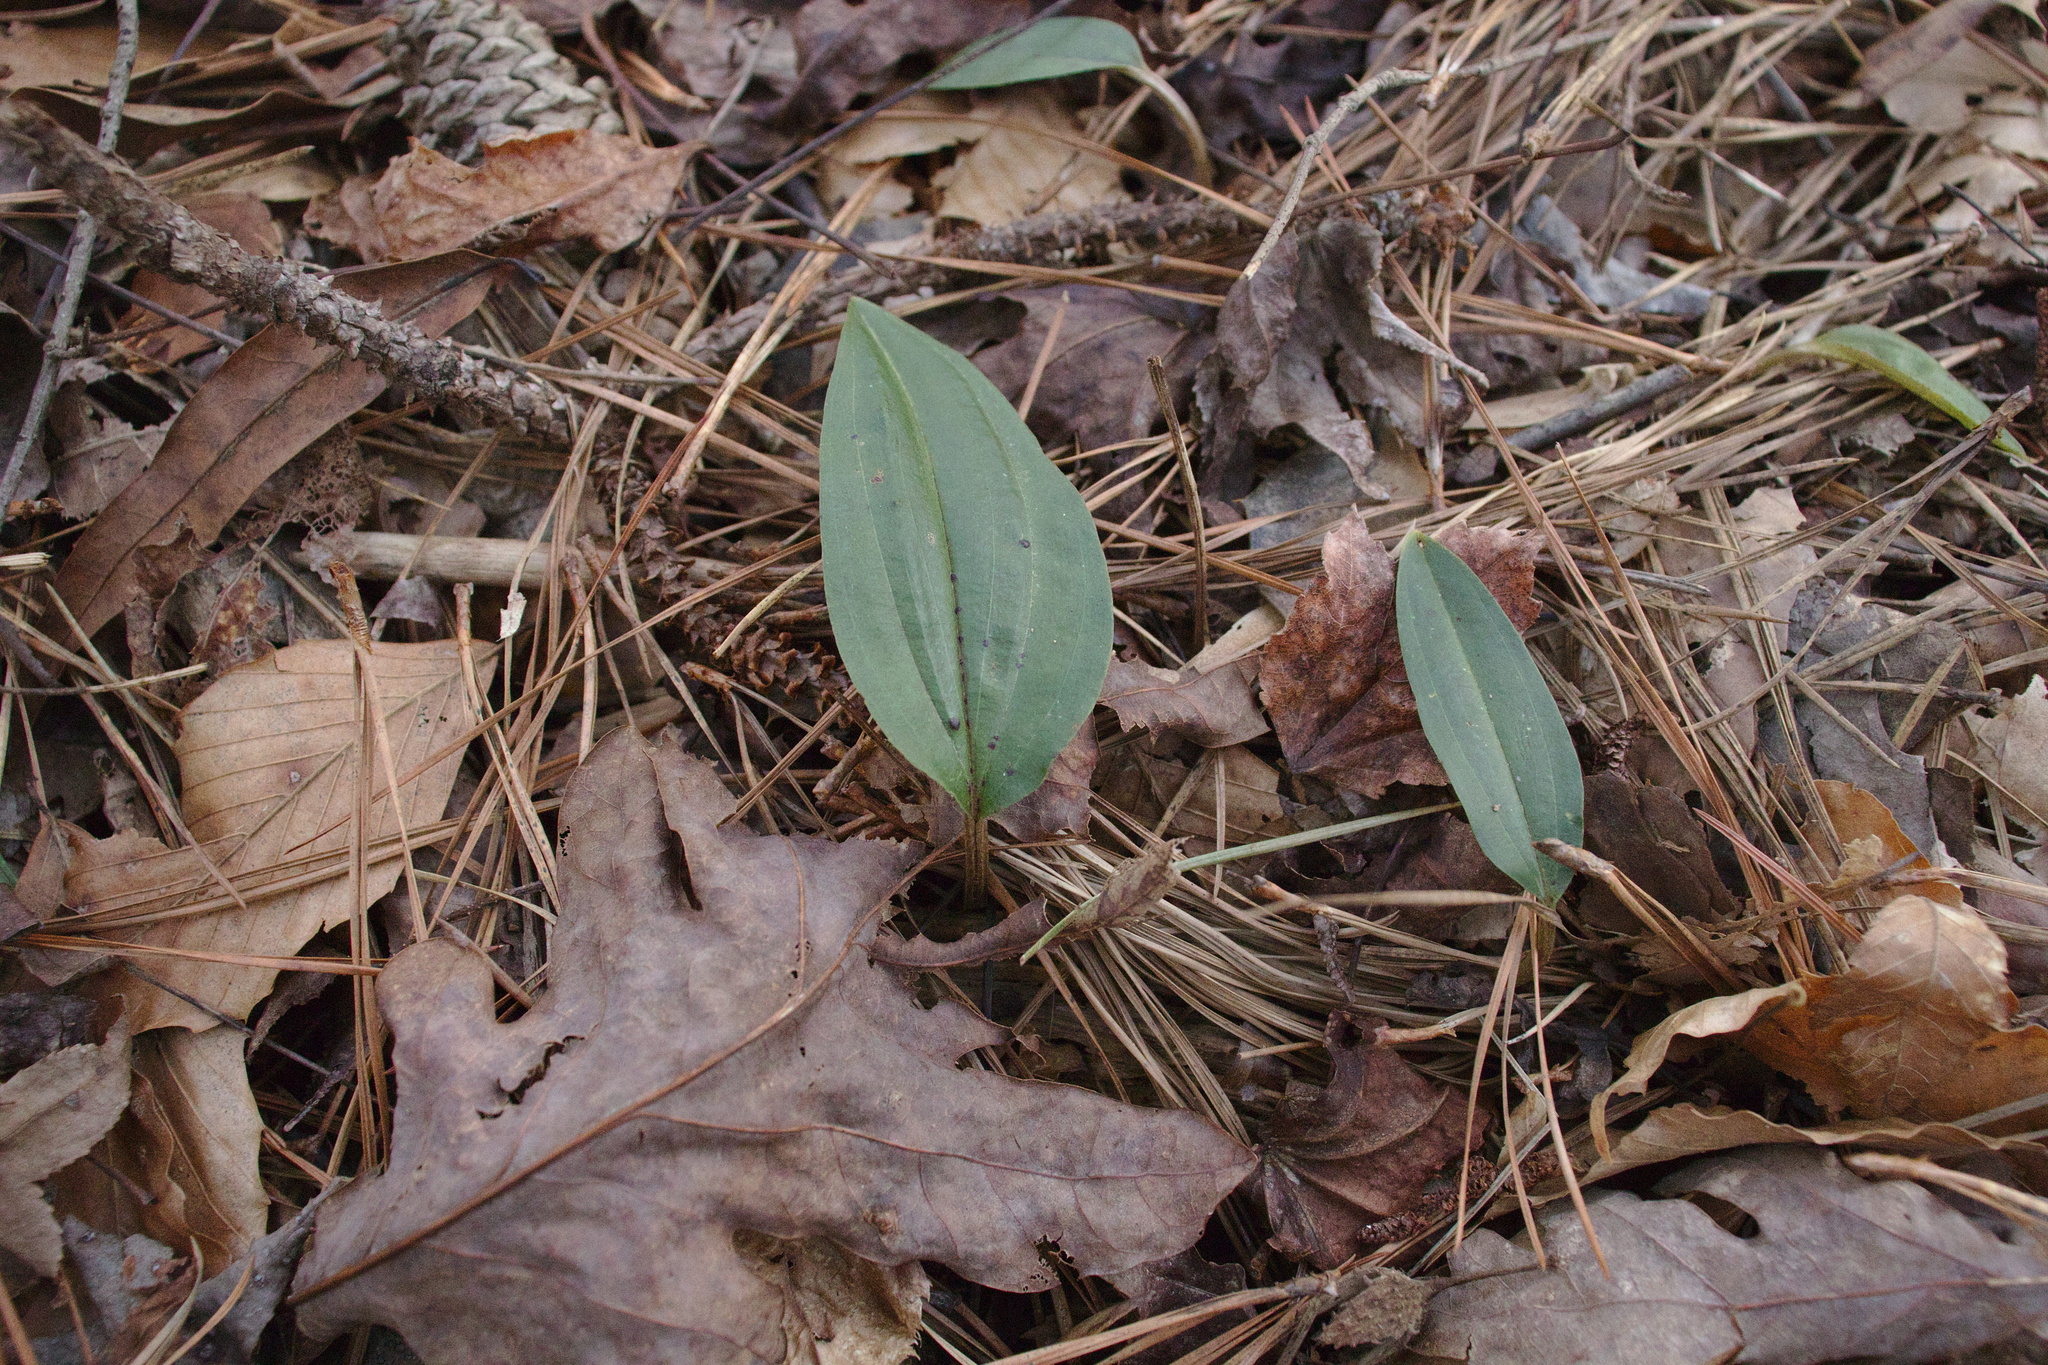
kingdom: Plantae
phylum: Tracheophyta
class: Liliopsida
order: Asparagales
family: Orchidaceae
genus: Tipularia
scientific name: Tipularia discolor
